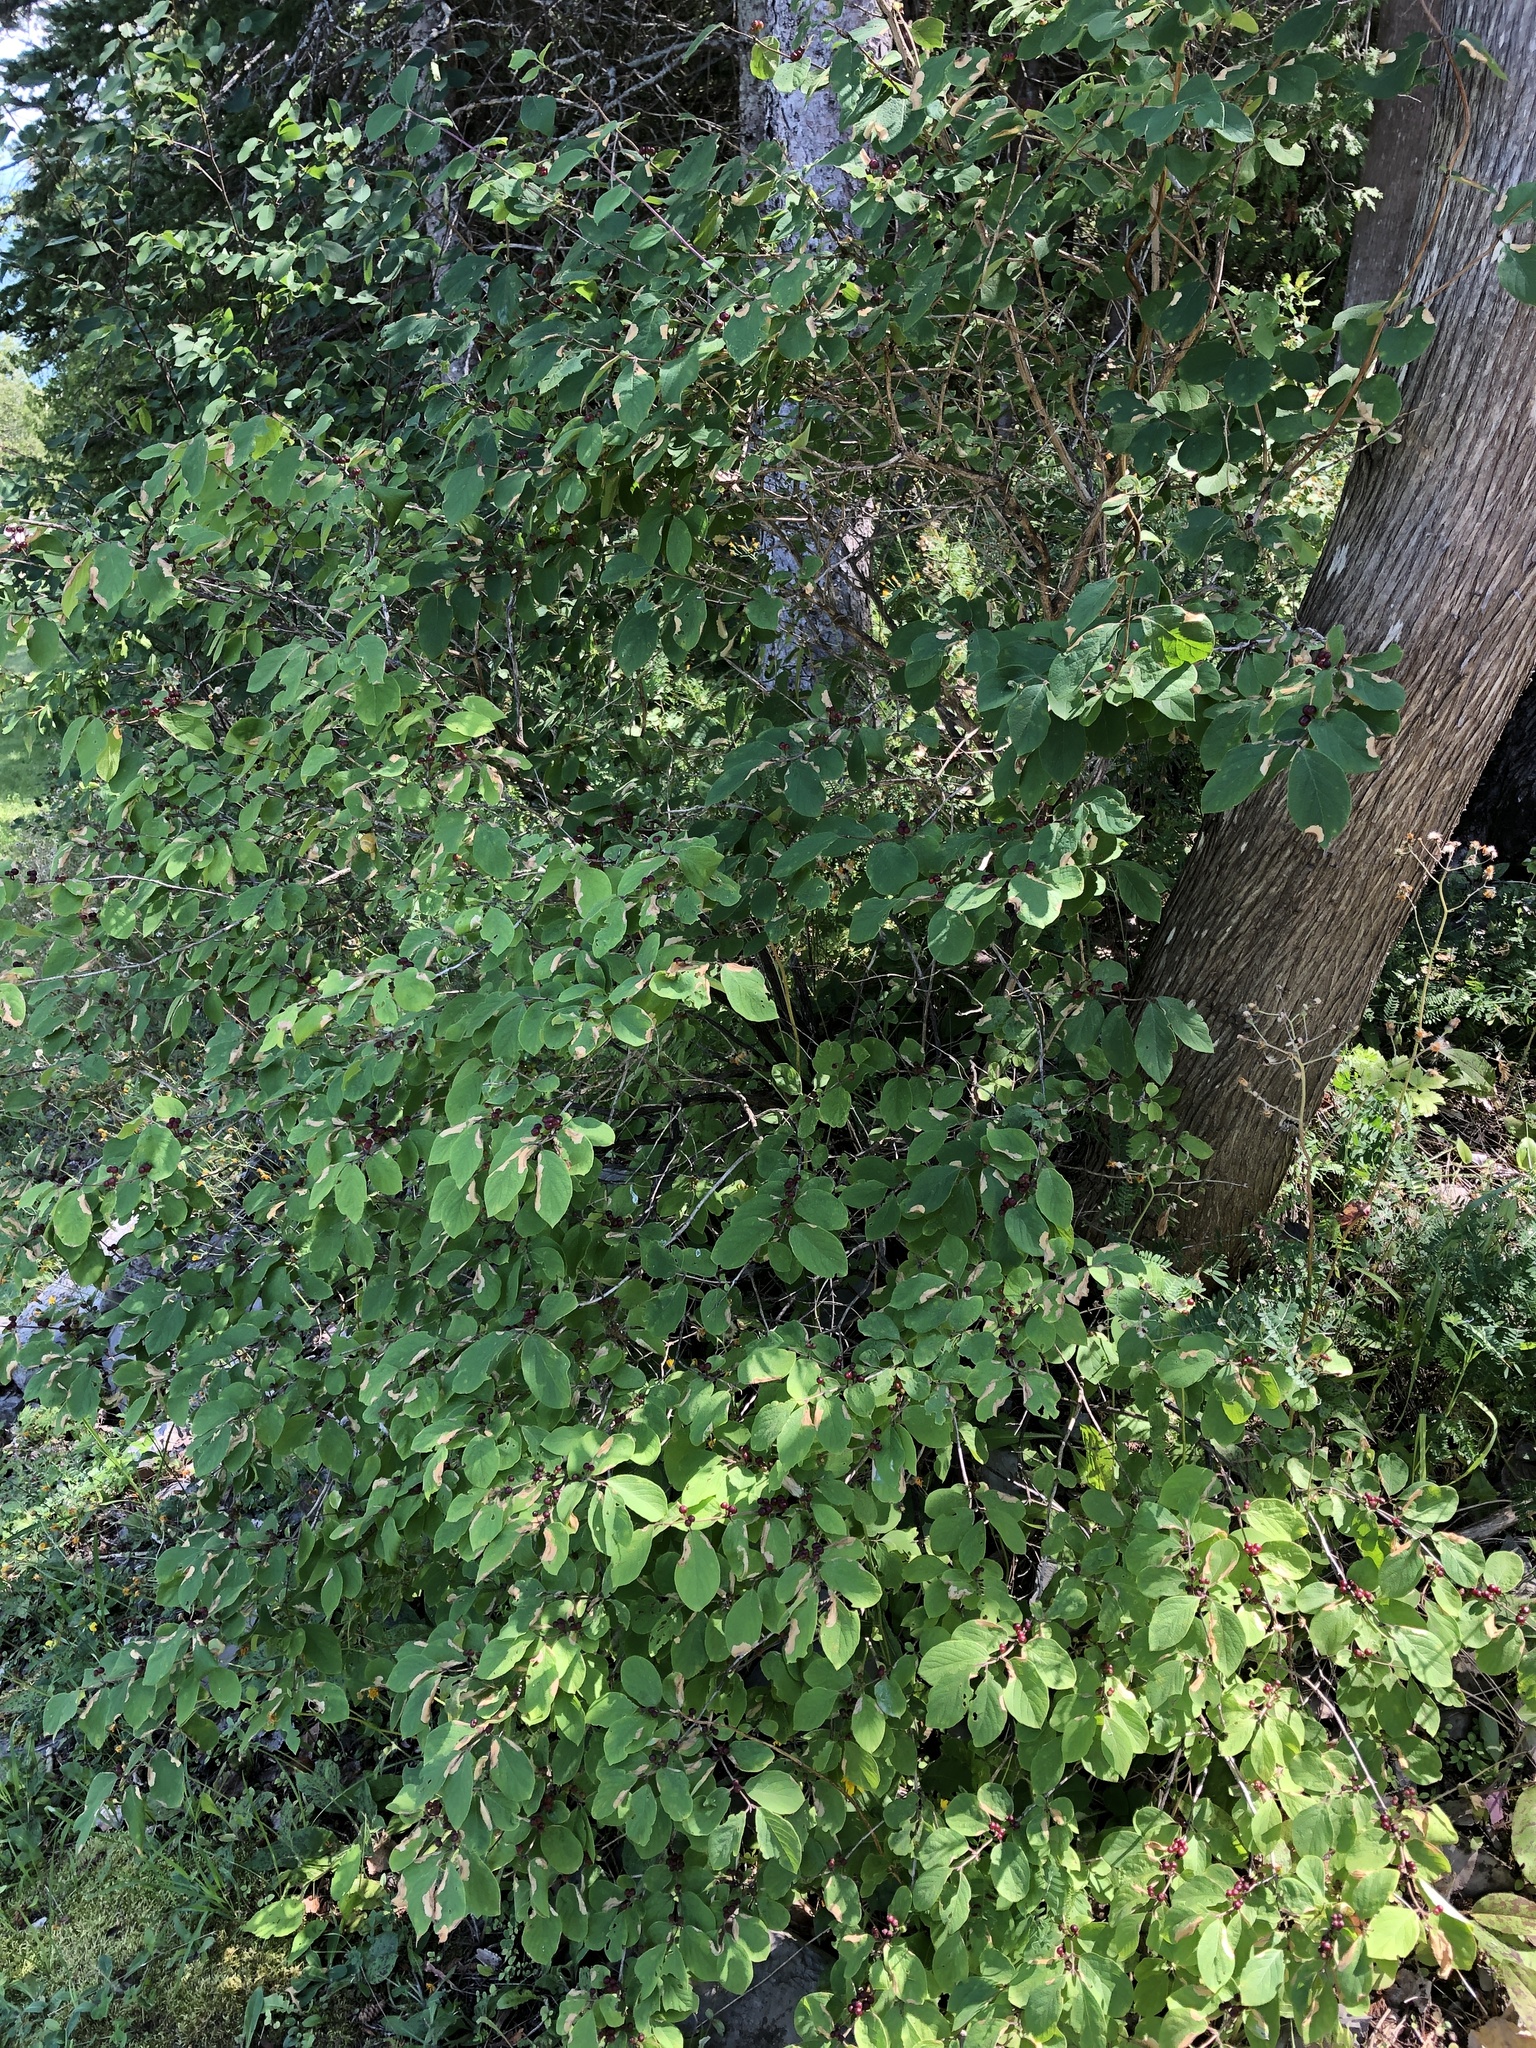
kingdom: Plantae
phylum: Tracheophyta
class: Magnoliopsida
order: Dipsacales
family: Caprifoliaceae
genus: Lonicera
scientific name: Lonicera xylosteum
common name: Fly honeysuckle
